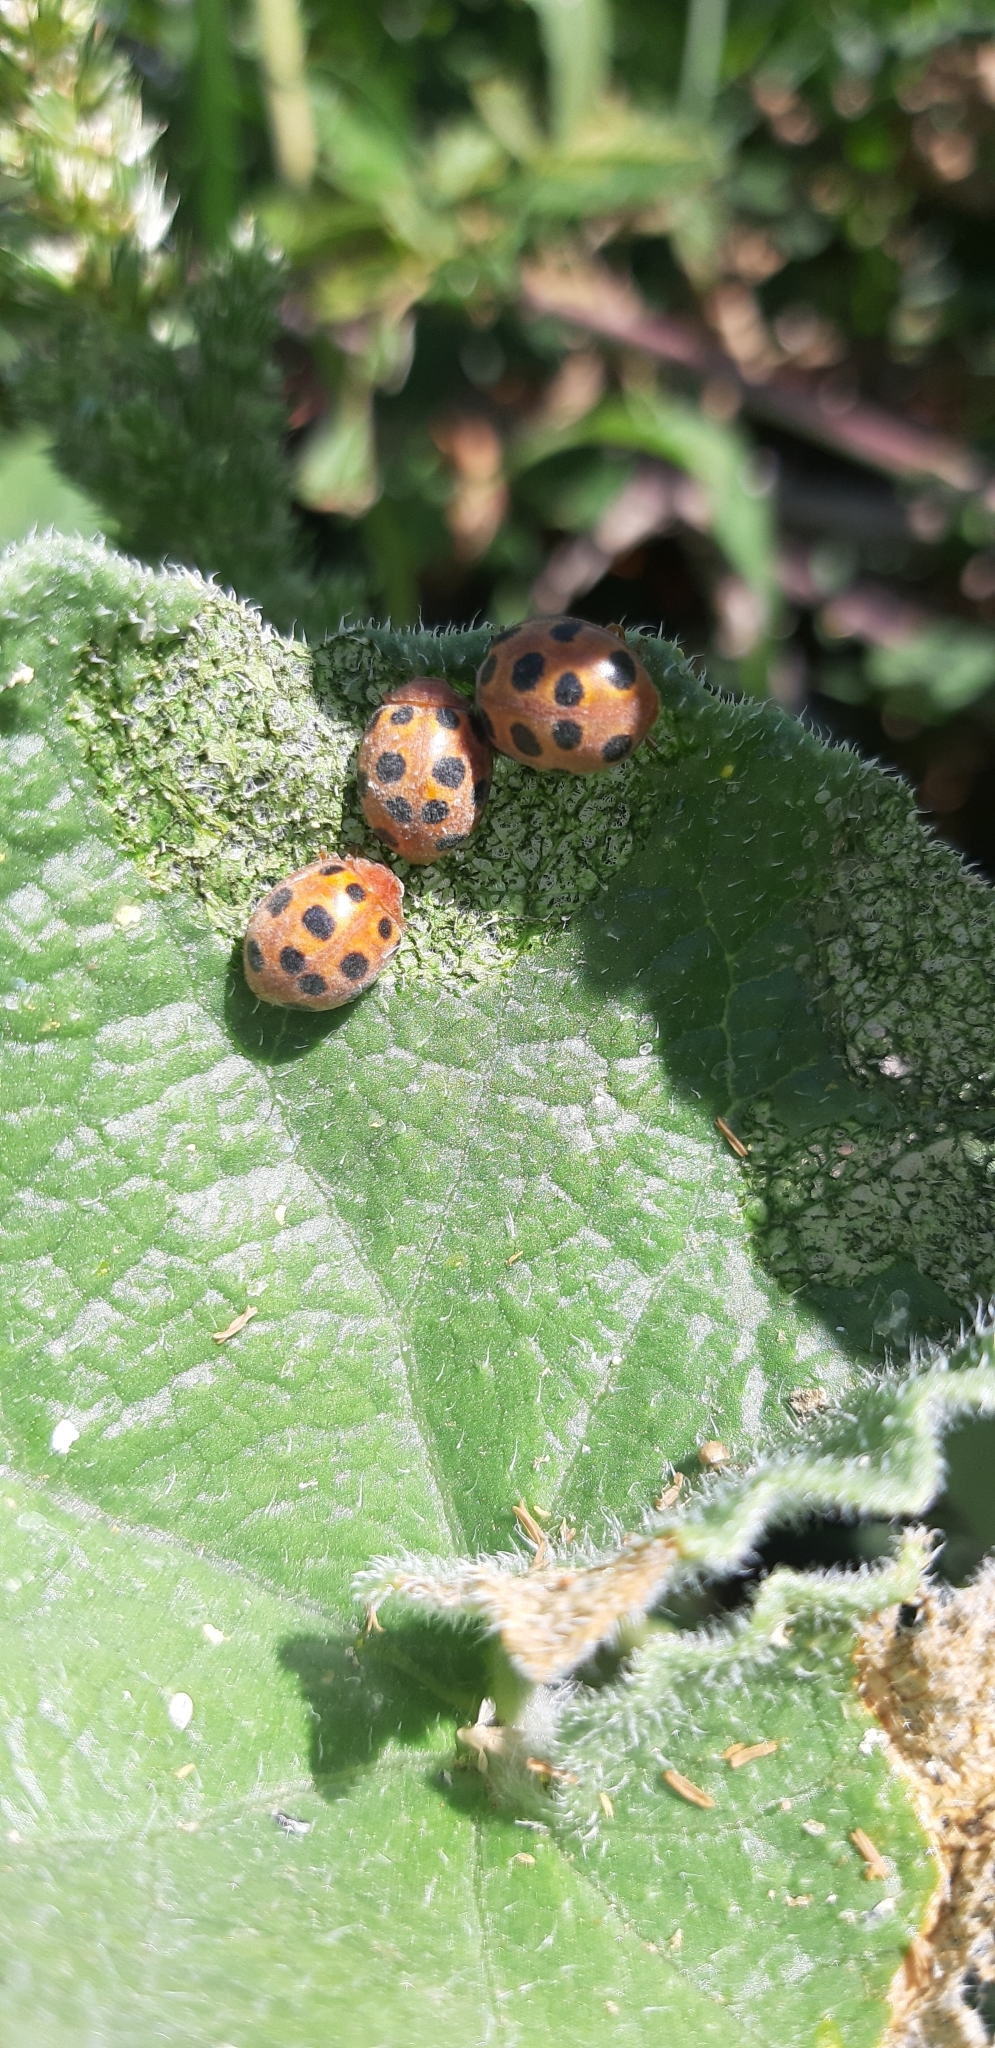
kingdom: Animalia
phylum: Arthropoda
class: Insecta
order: Coleoptera
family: Coccinellidae
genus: Chnootriba
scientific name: Chnootriba elaterii
